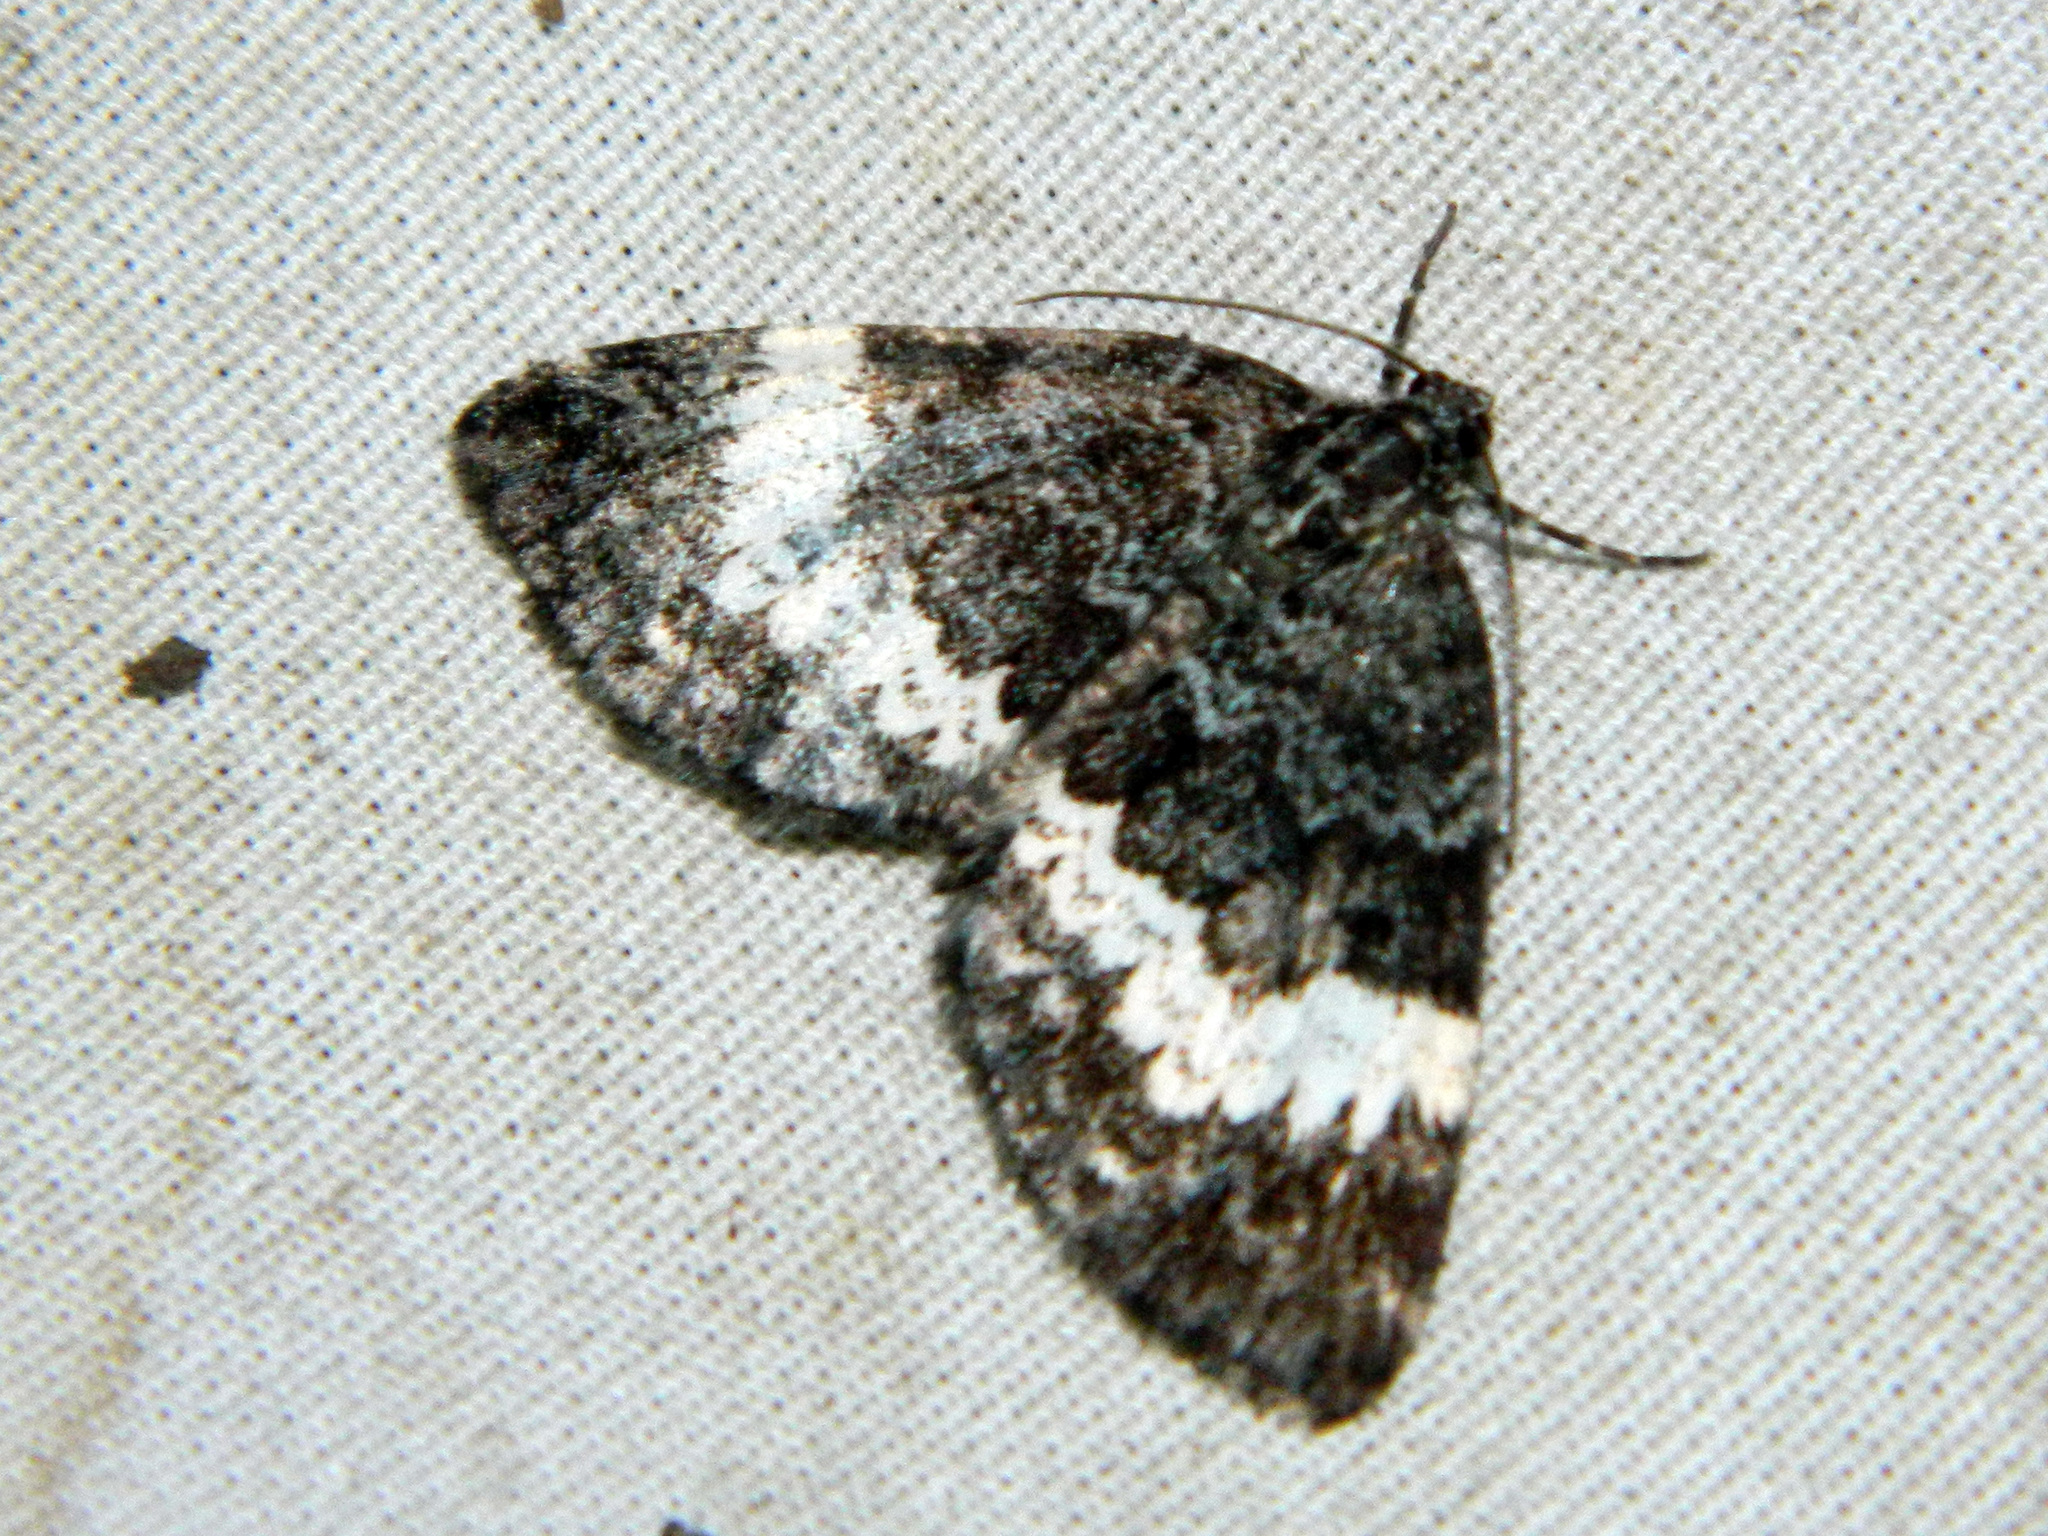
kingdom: Animalia
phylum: Arthropoda
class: Insecta
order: Lepidoptera
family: Geometridae
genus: Spargania
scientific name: Spargania luctuata
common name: White-banded carpet
